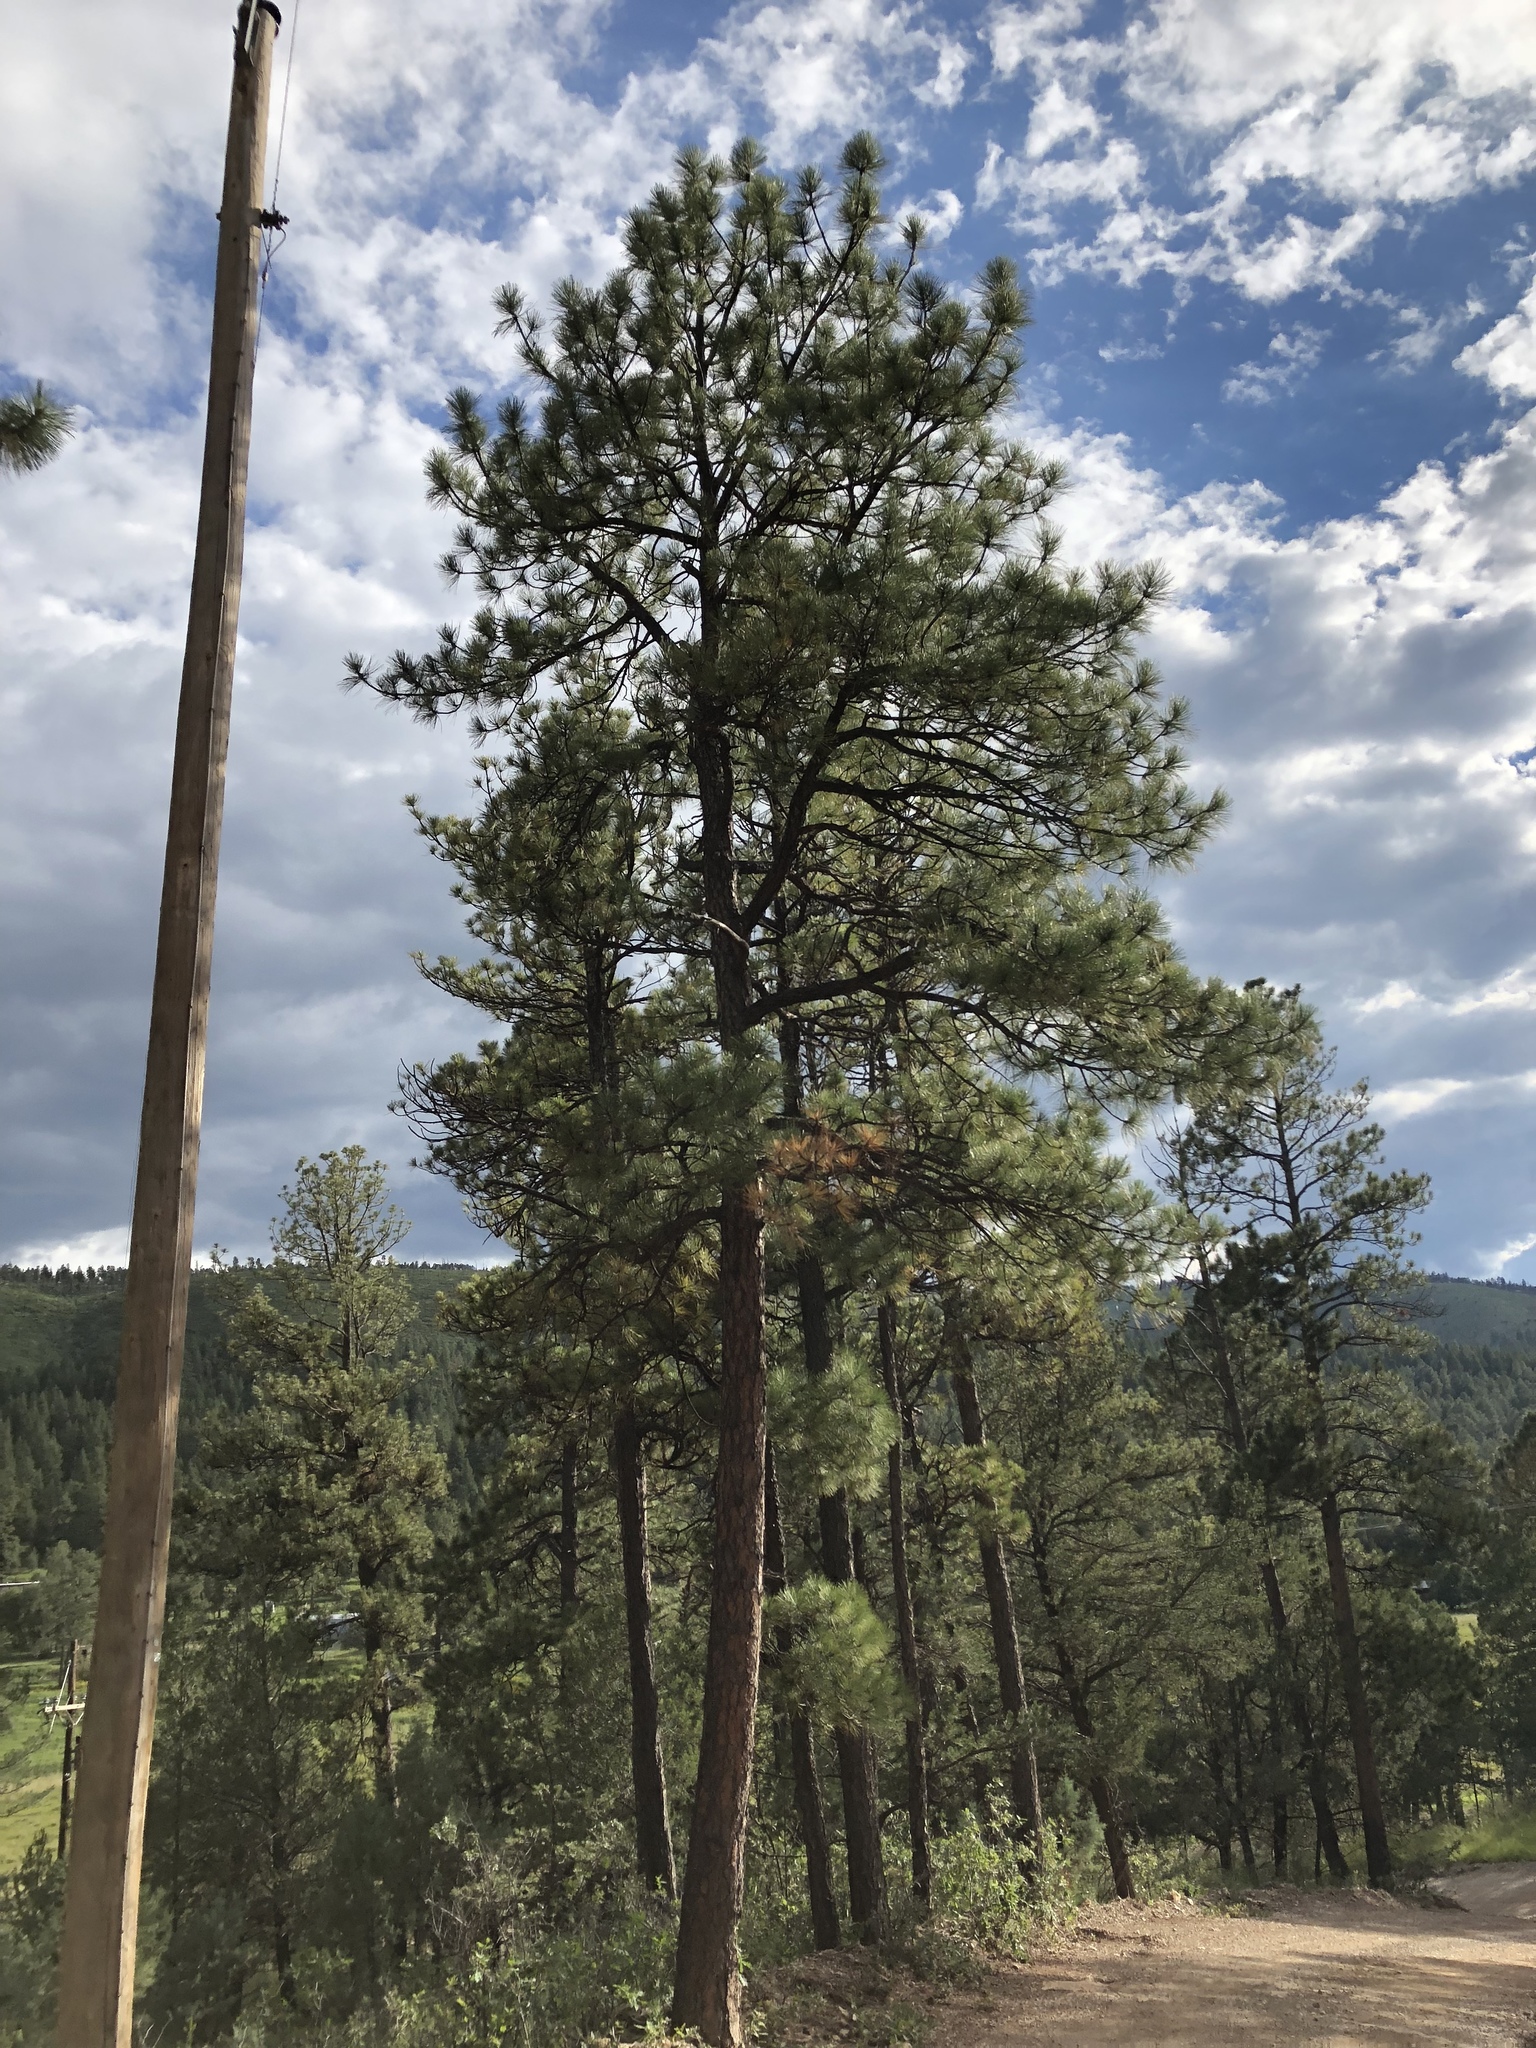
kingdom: Plantae
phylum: Tracheophyta
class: Pinopsida
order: Pinales
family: Pinaceae
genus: Pinus
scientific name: Pinus ponderosa
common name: Western yellow-pine
